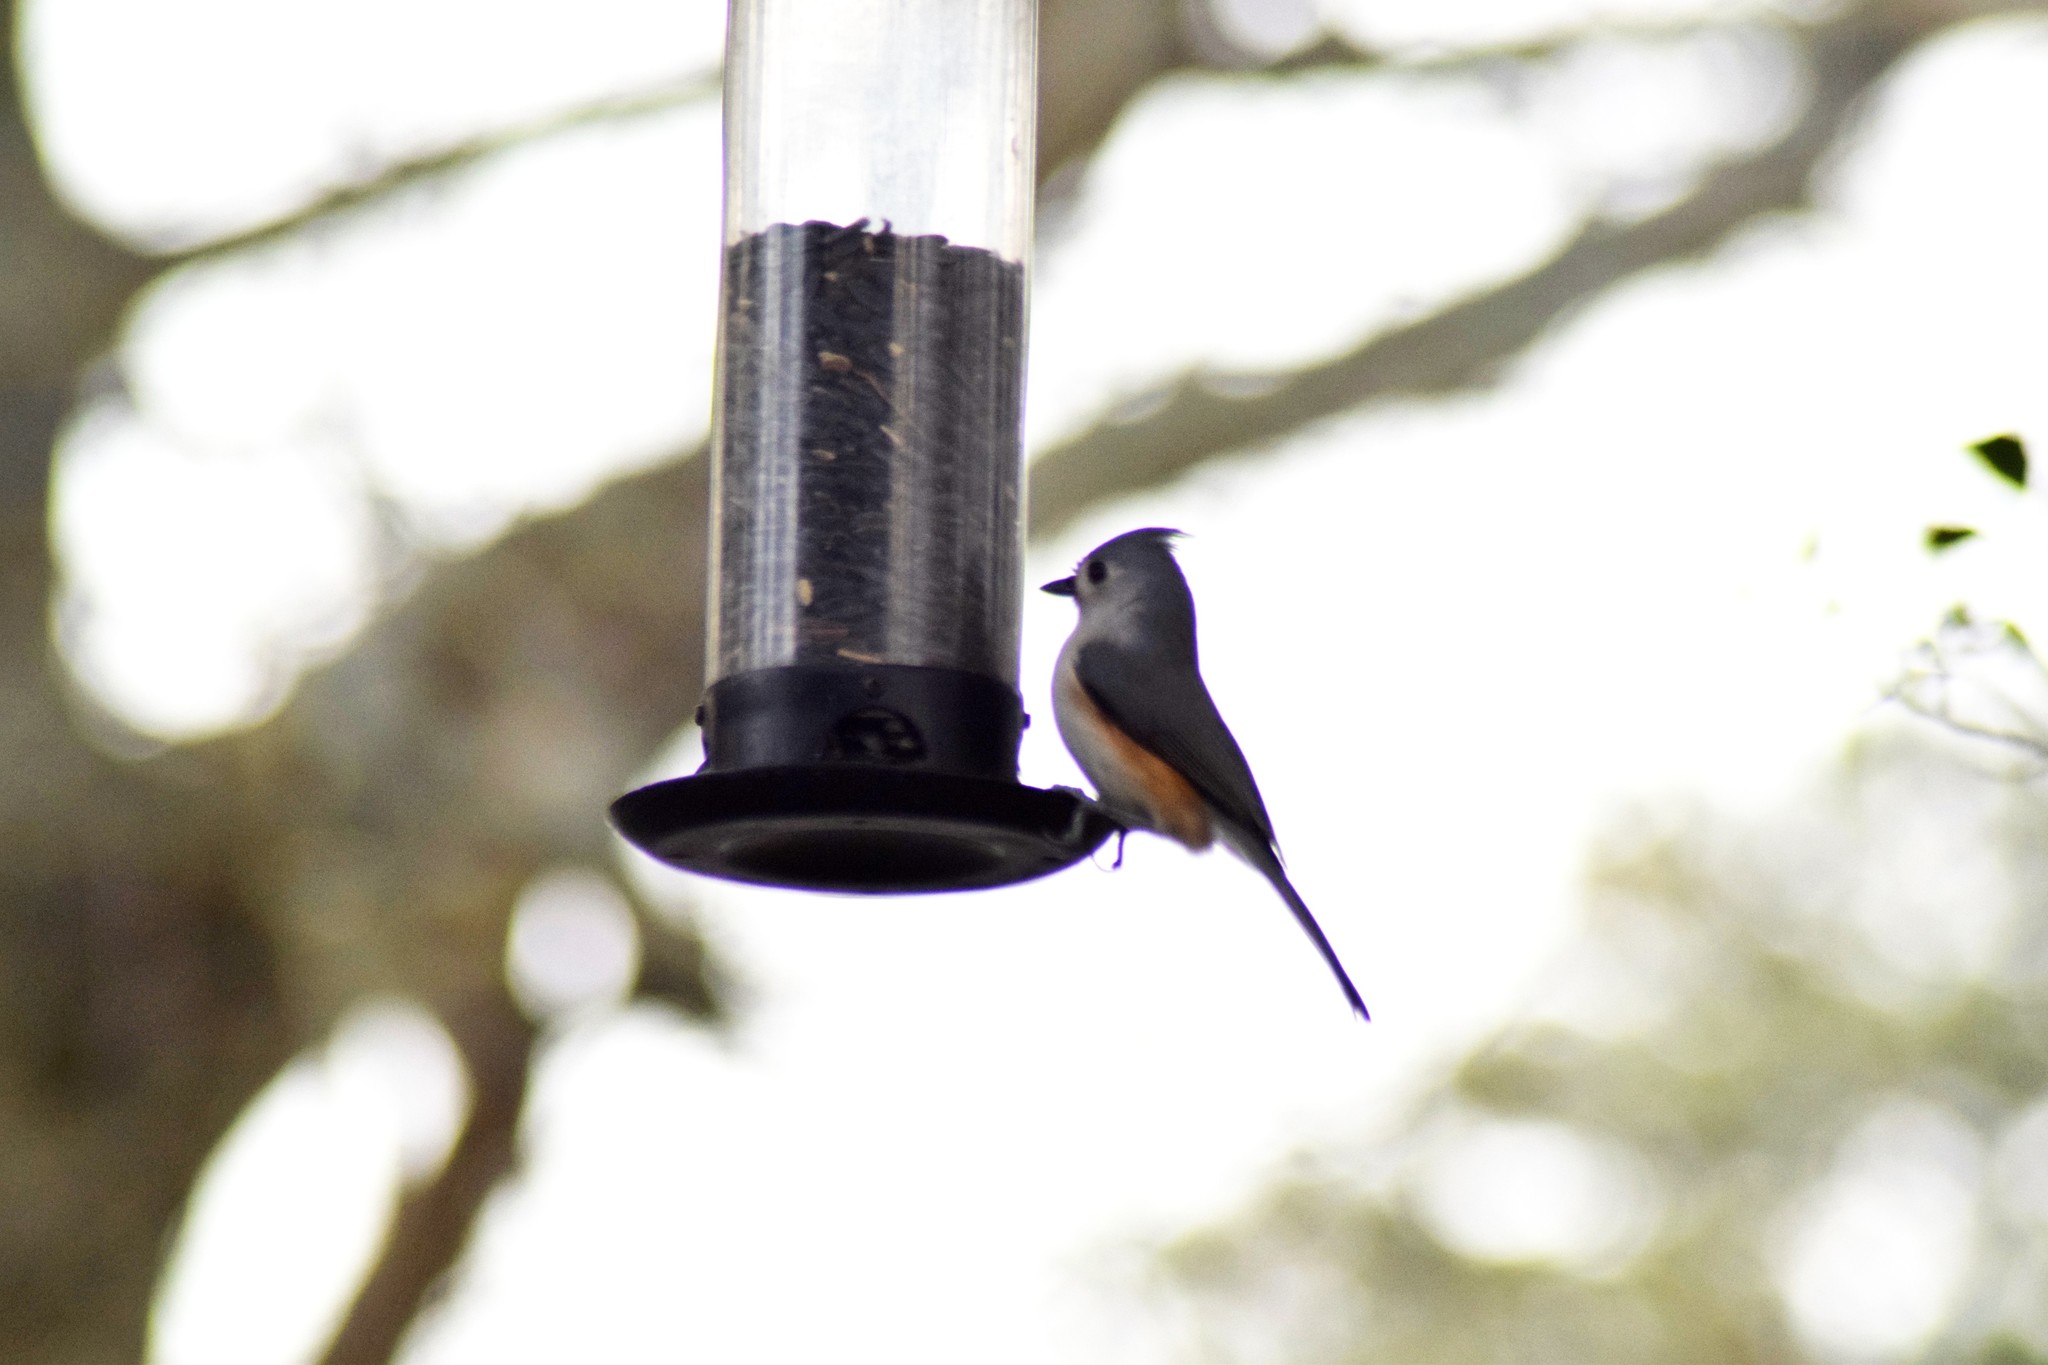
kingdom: Animalia
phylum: Chordata
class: Aves
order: Passeriformes
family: Paridae
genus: Baeolophus
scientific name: Baeolophus bicolor
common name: Tufted titmouse
